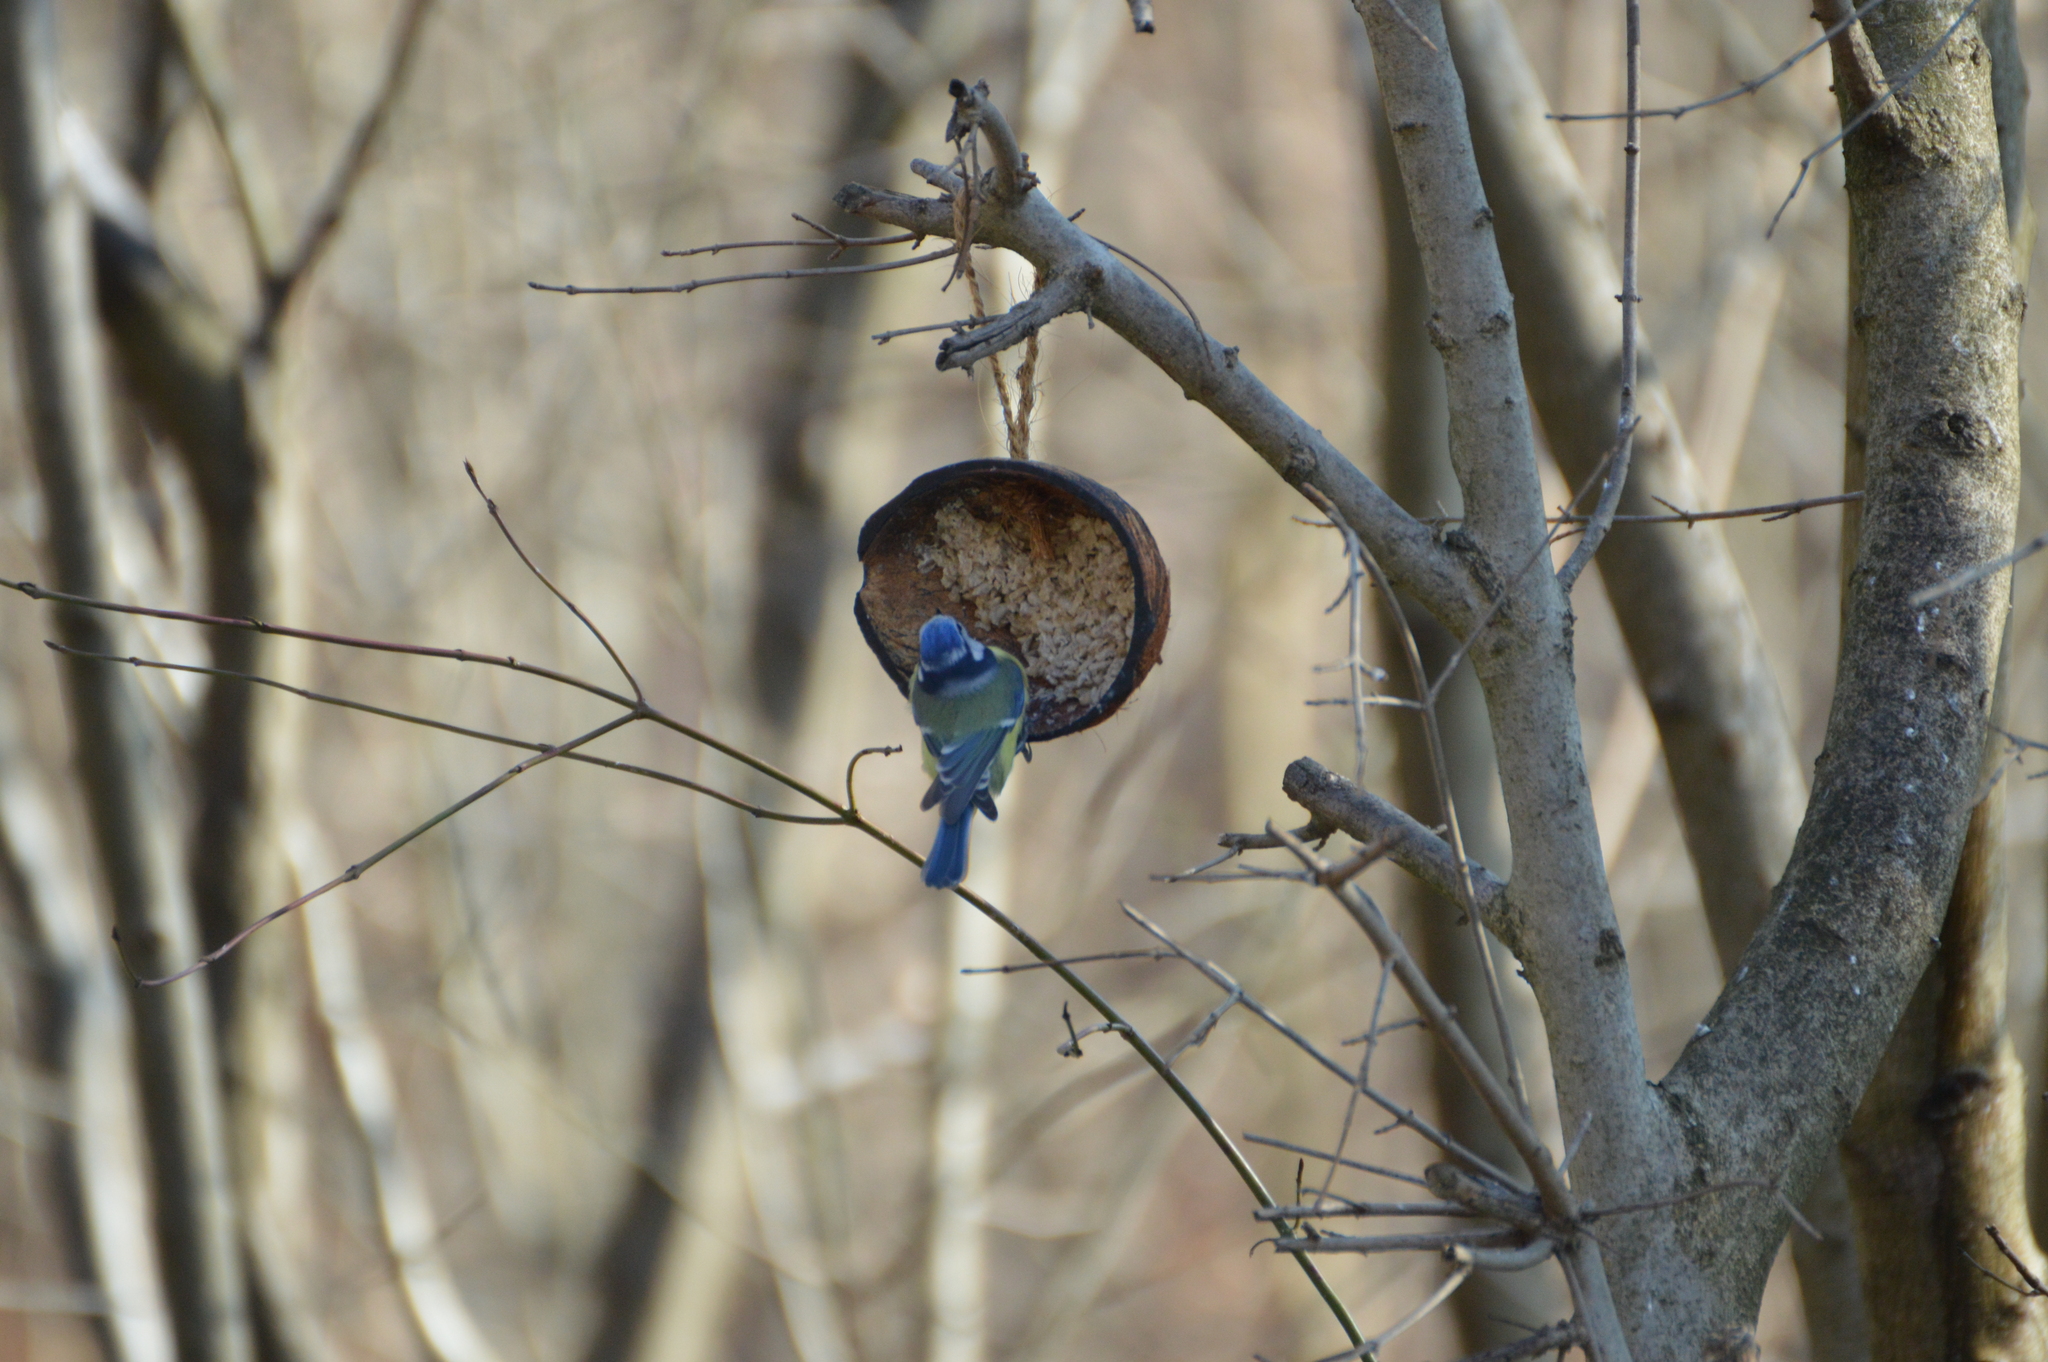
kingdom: Animalia
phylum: Chordata
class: Aves
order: Passeriformes
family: Paridae
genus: Cyanistes
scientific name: Cyanistes caeruleus
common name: Eurasian blue tit
